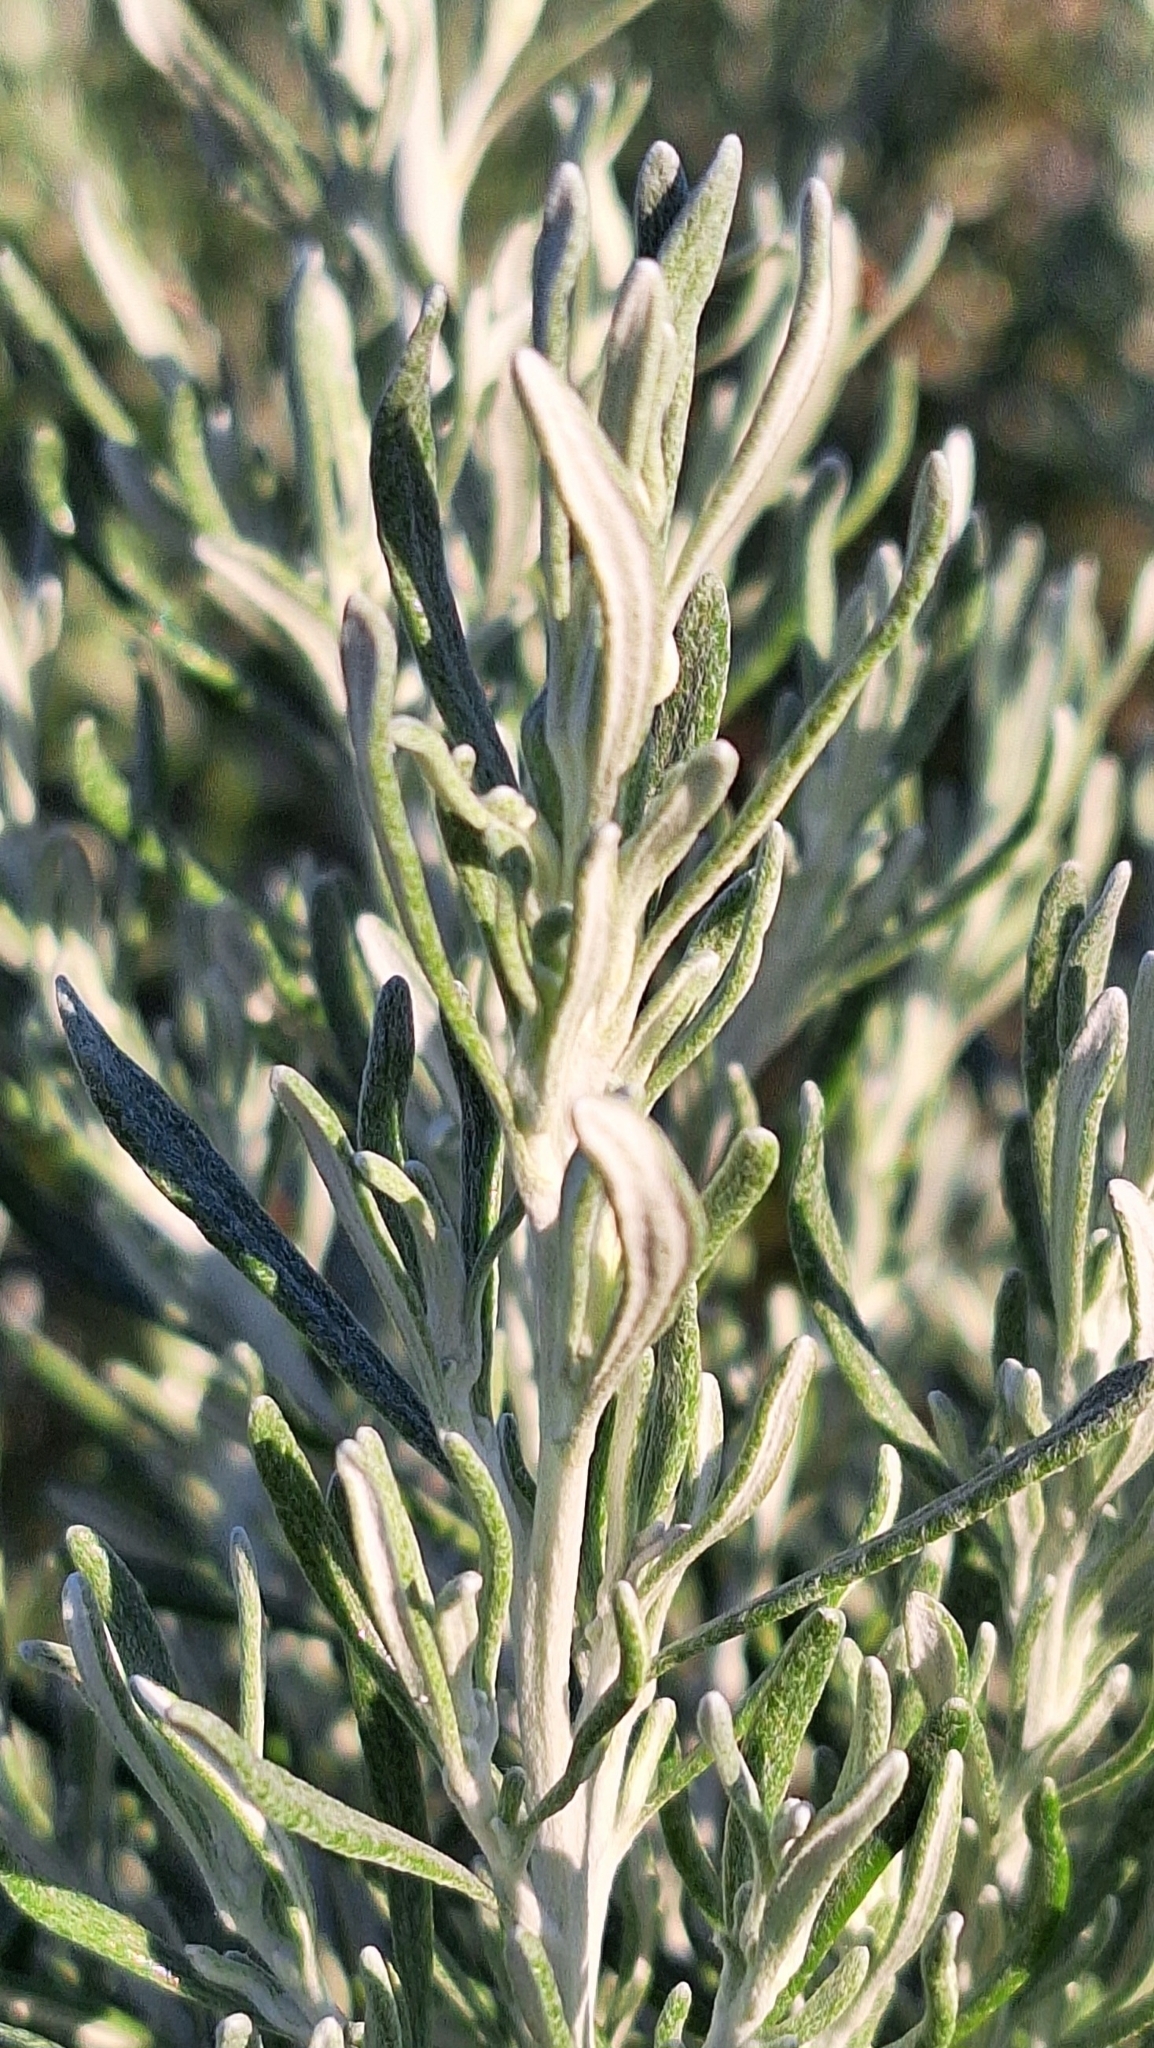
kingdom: Plantae
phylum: Tracheophyta
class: Magnoliopsida
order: Asterales
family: Asteraceae
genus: Olearia
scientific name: Olearia axillaris
